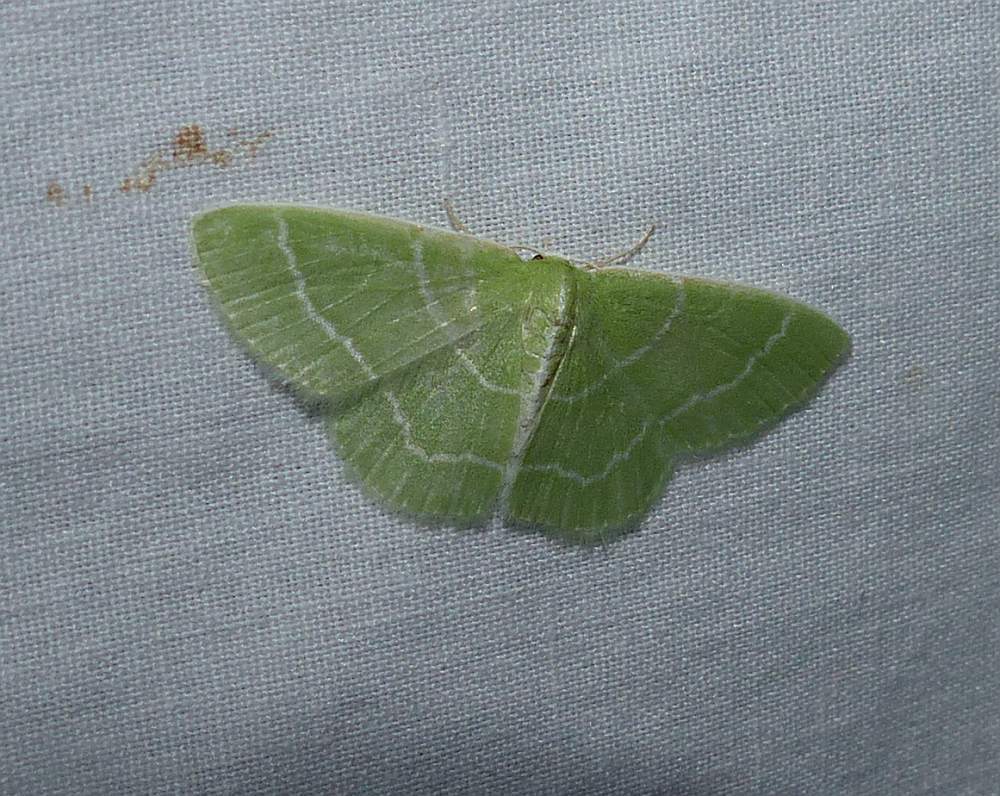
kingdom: Animalia
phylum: Arthropoda
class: Insecta
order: Lepidoptera
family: Geometridae
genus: Synchlora
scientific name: Synchlora aerata
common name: Wavy-lined emerald
